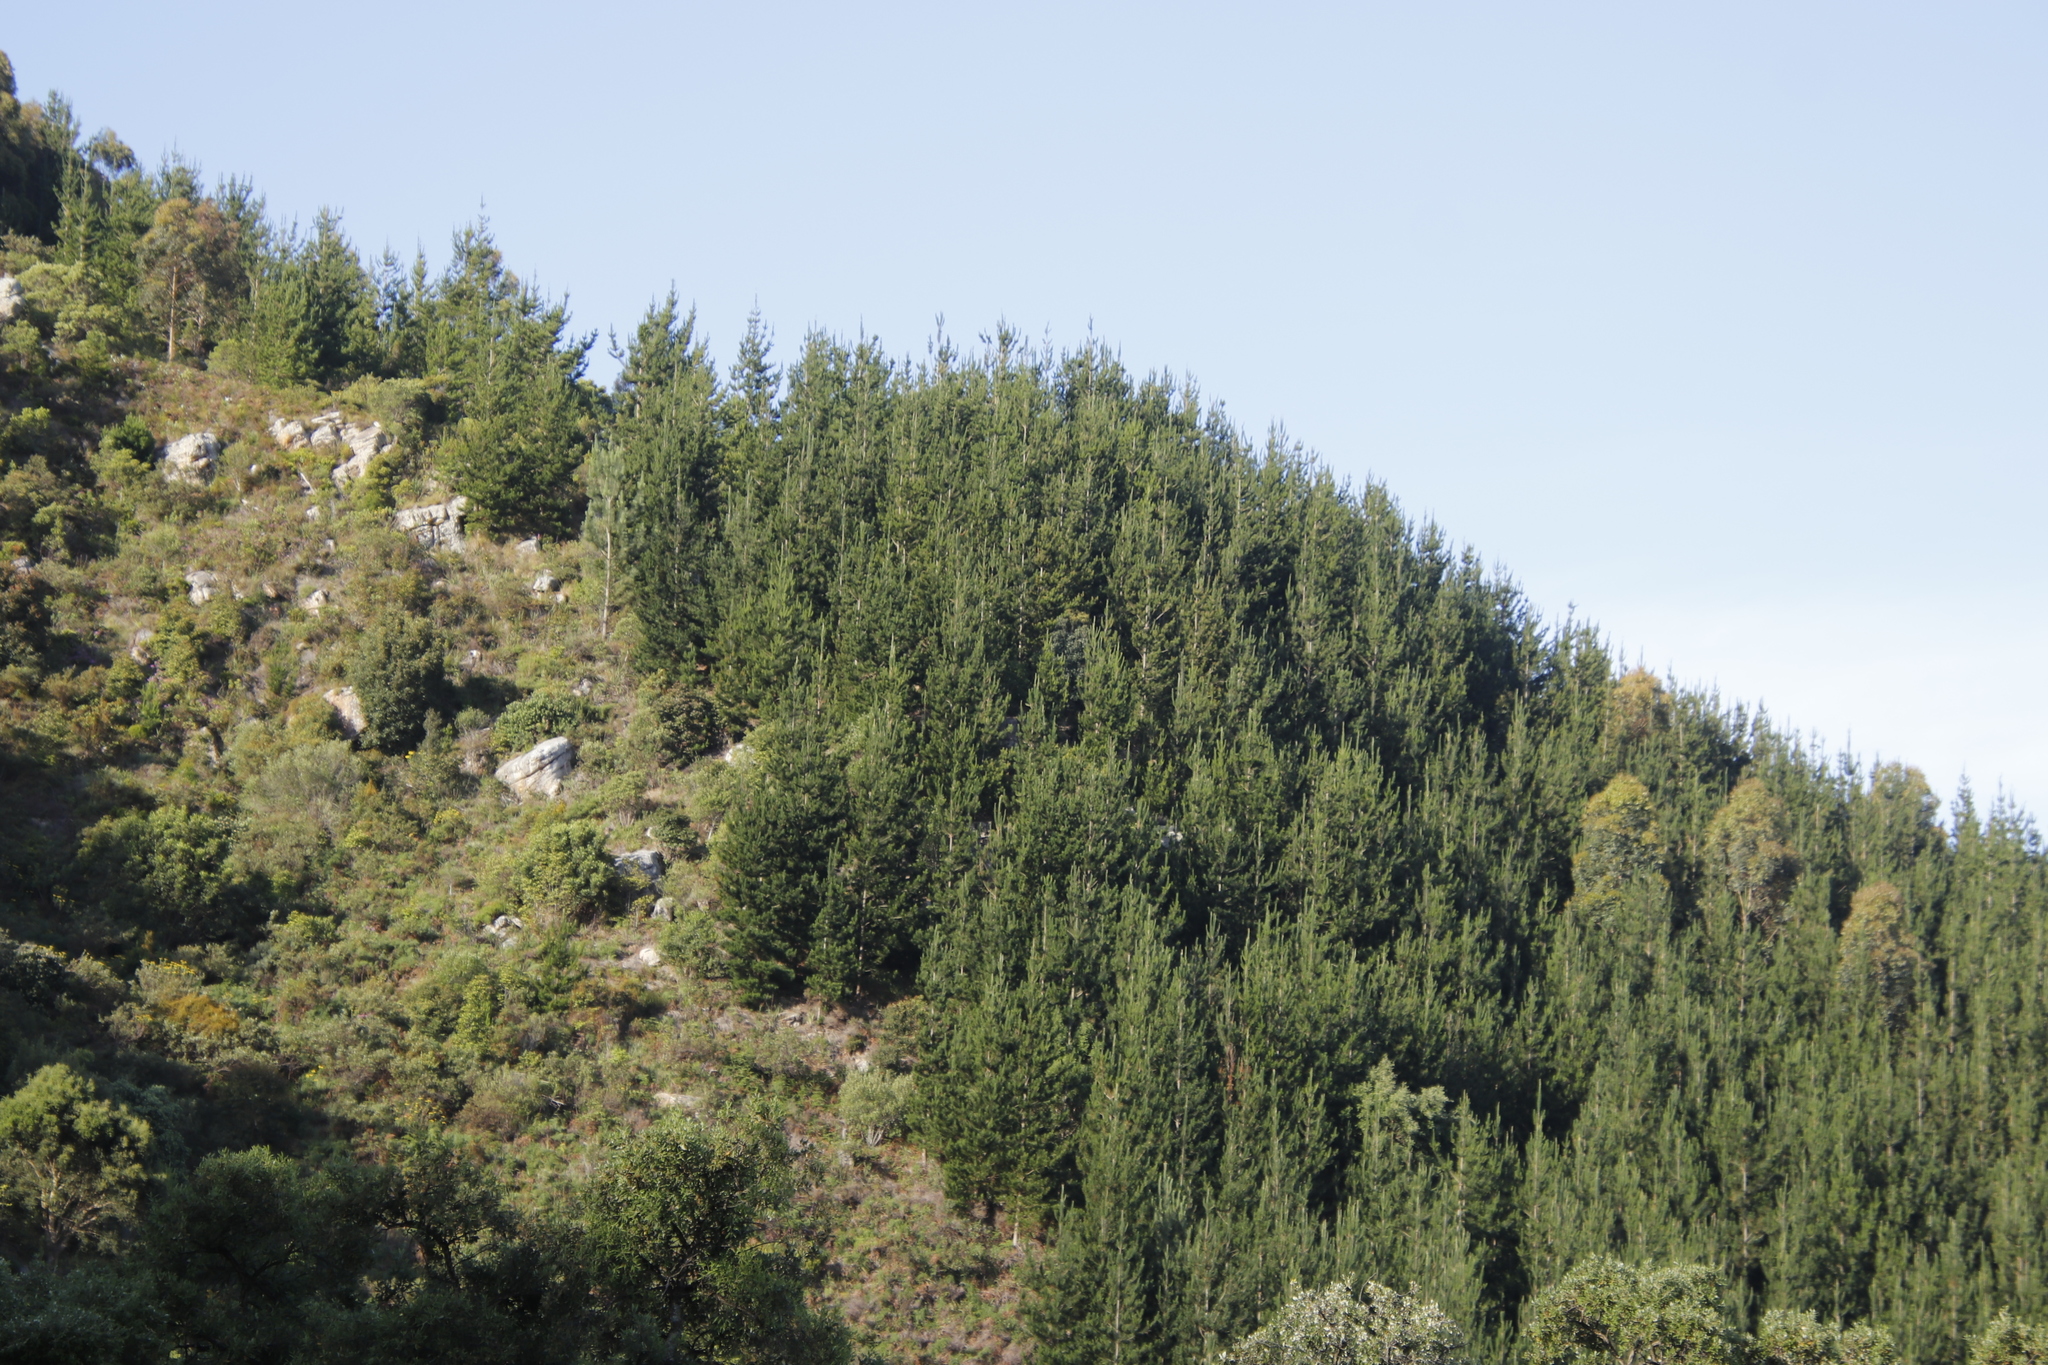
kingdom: Plantae
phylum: Tracheophyta
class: Pinopsida
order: Pinales
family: Pinaceae
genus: Pinus
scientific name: Pinus radiata
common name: Monterey pine
